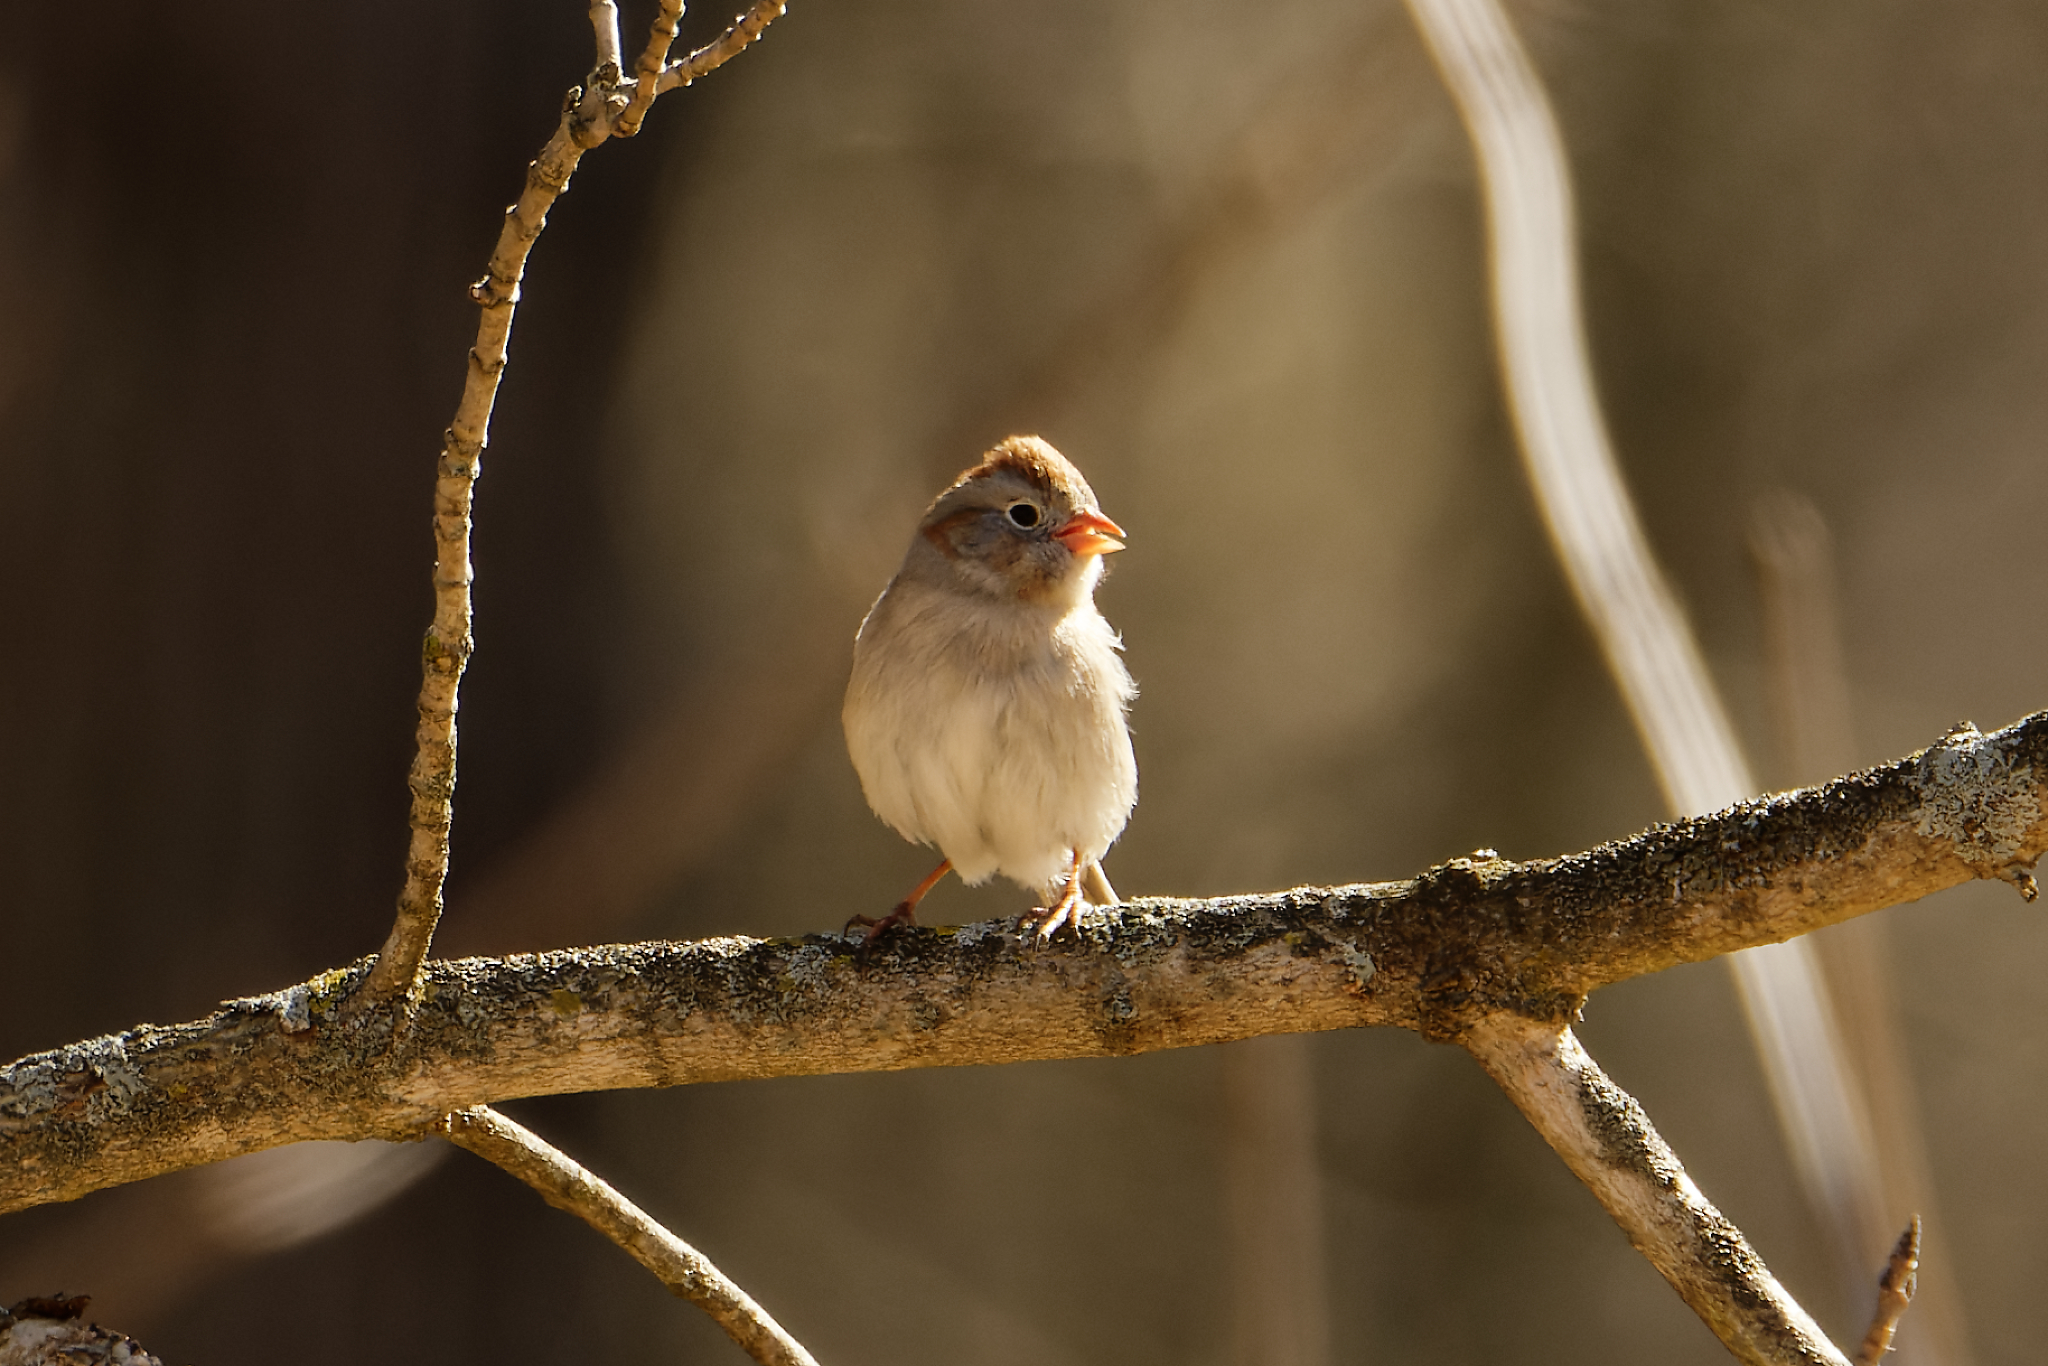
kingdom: Animalia
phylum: Chordata
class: Aves
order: Passeriformes
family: Passerellidae
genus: Spizella
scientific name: Spizella pusilla
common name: Field sparrow
